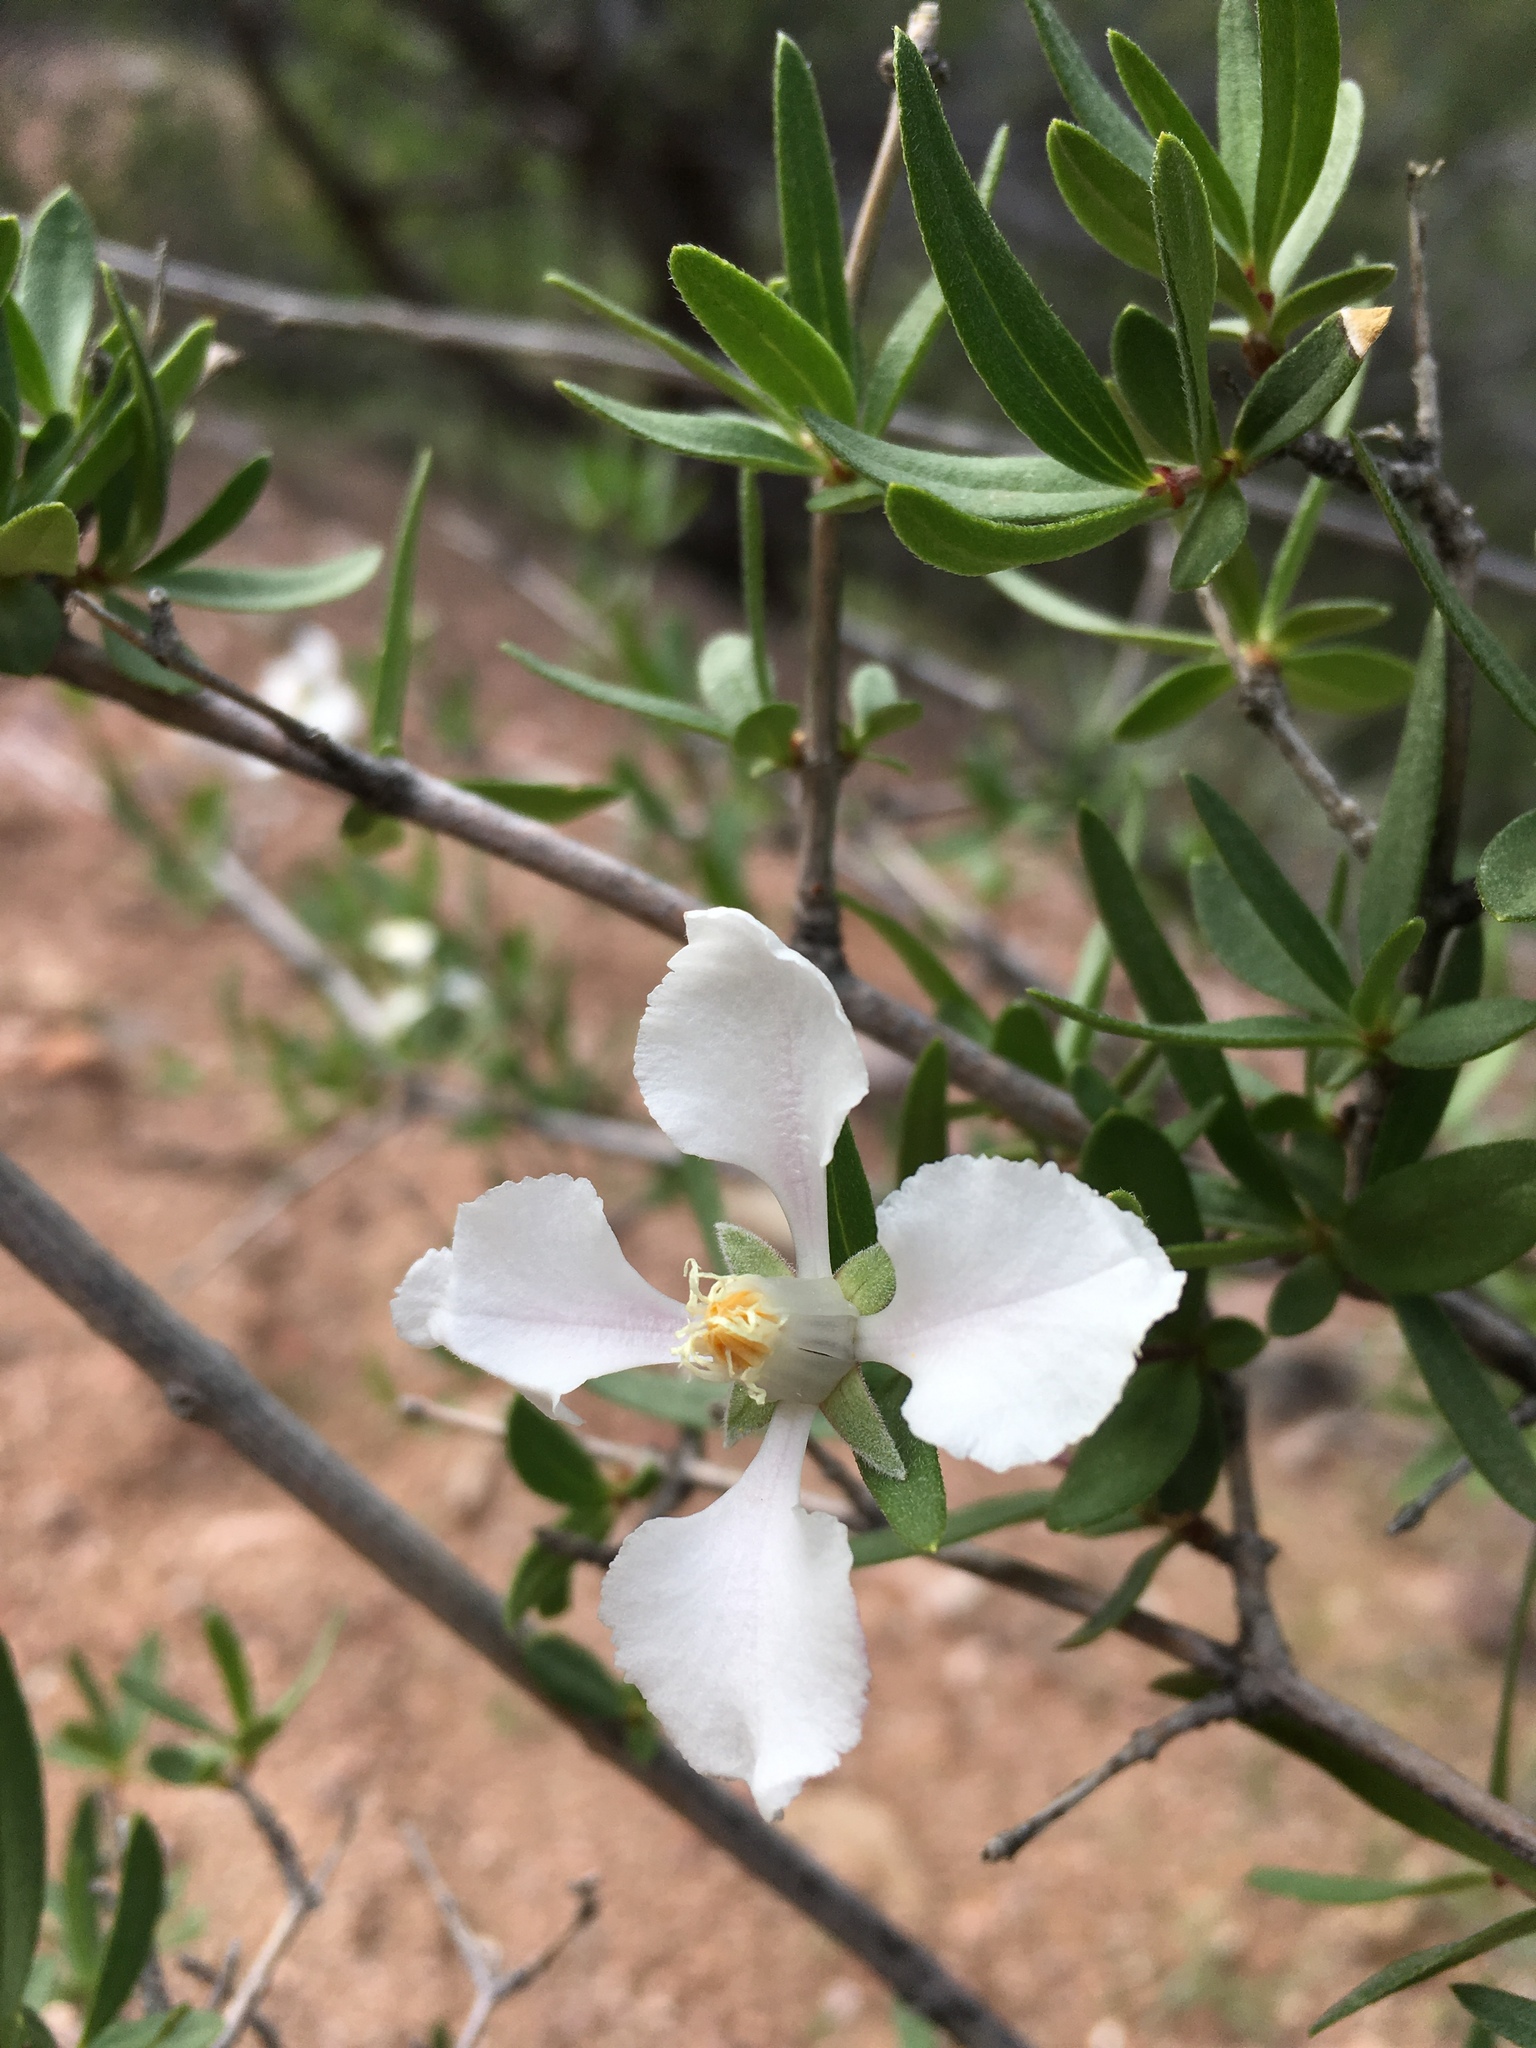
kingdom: Plantae
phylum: Tracheophyta
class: Magnoliopsida
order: Cornales
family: Hydrangeaceae
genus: Fendlera
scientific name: Fendlera rupicola
